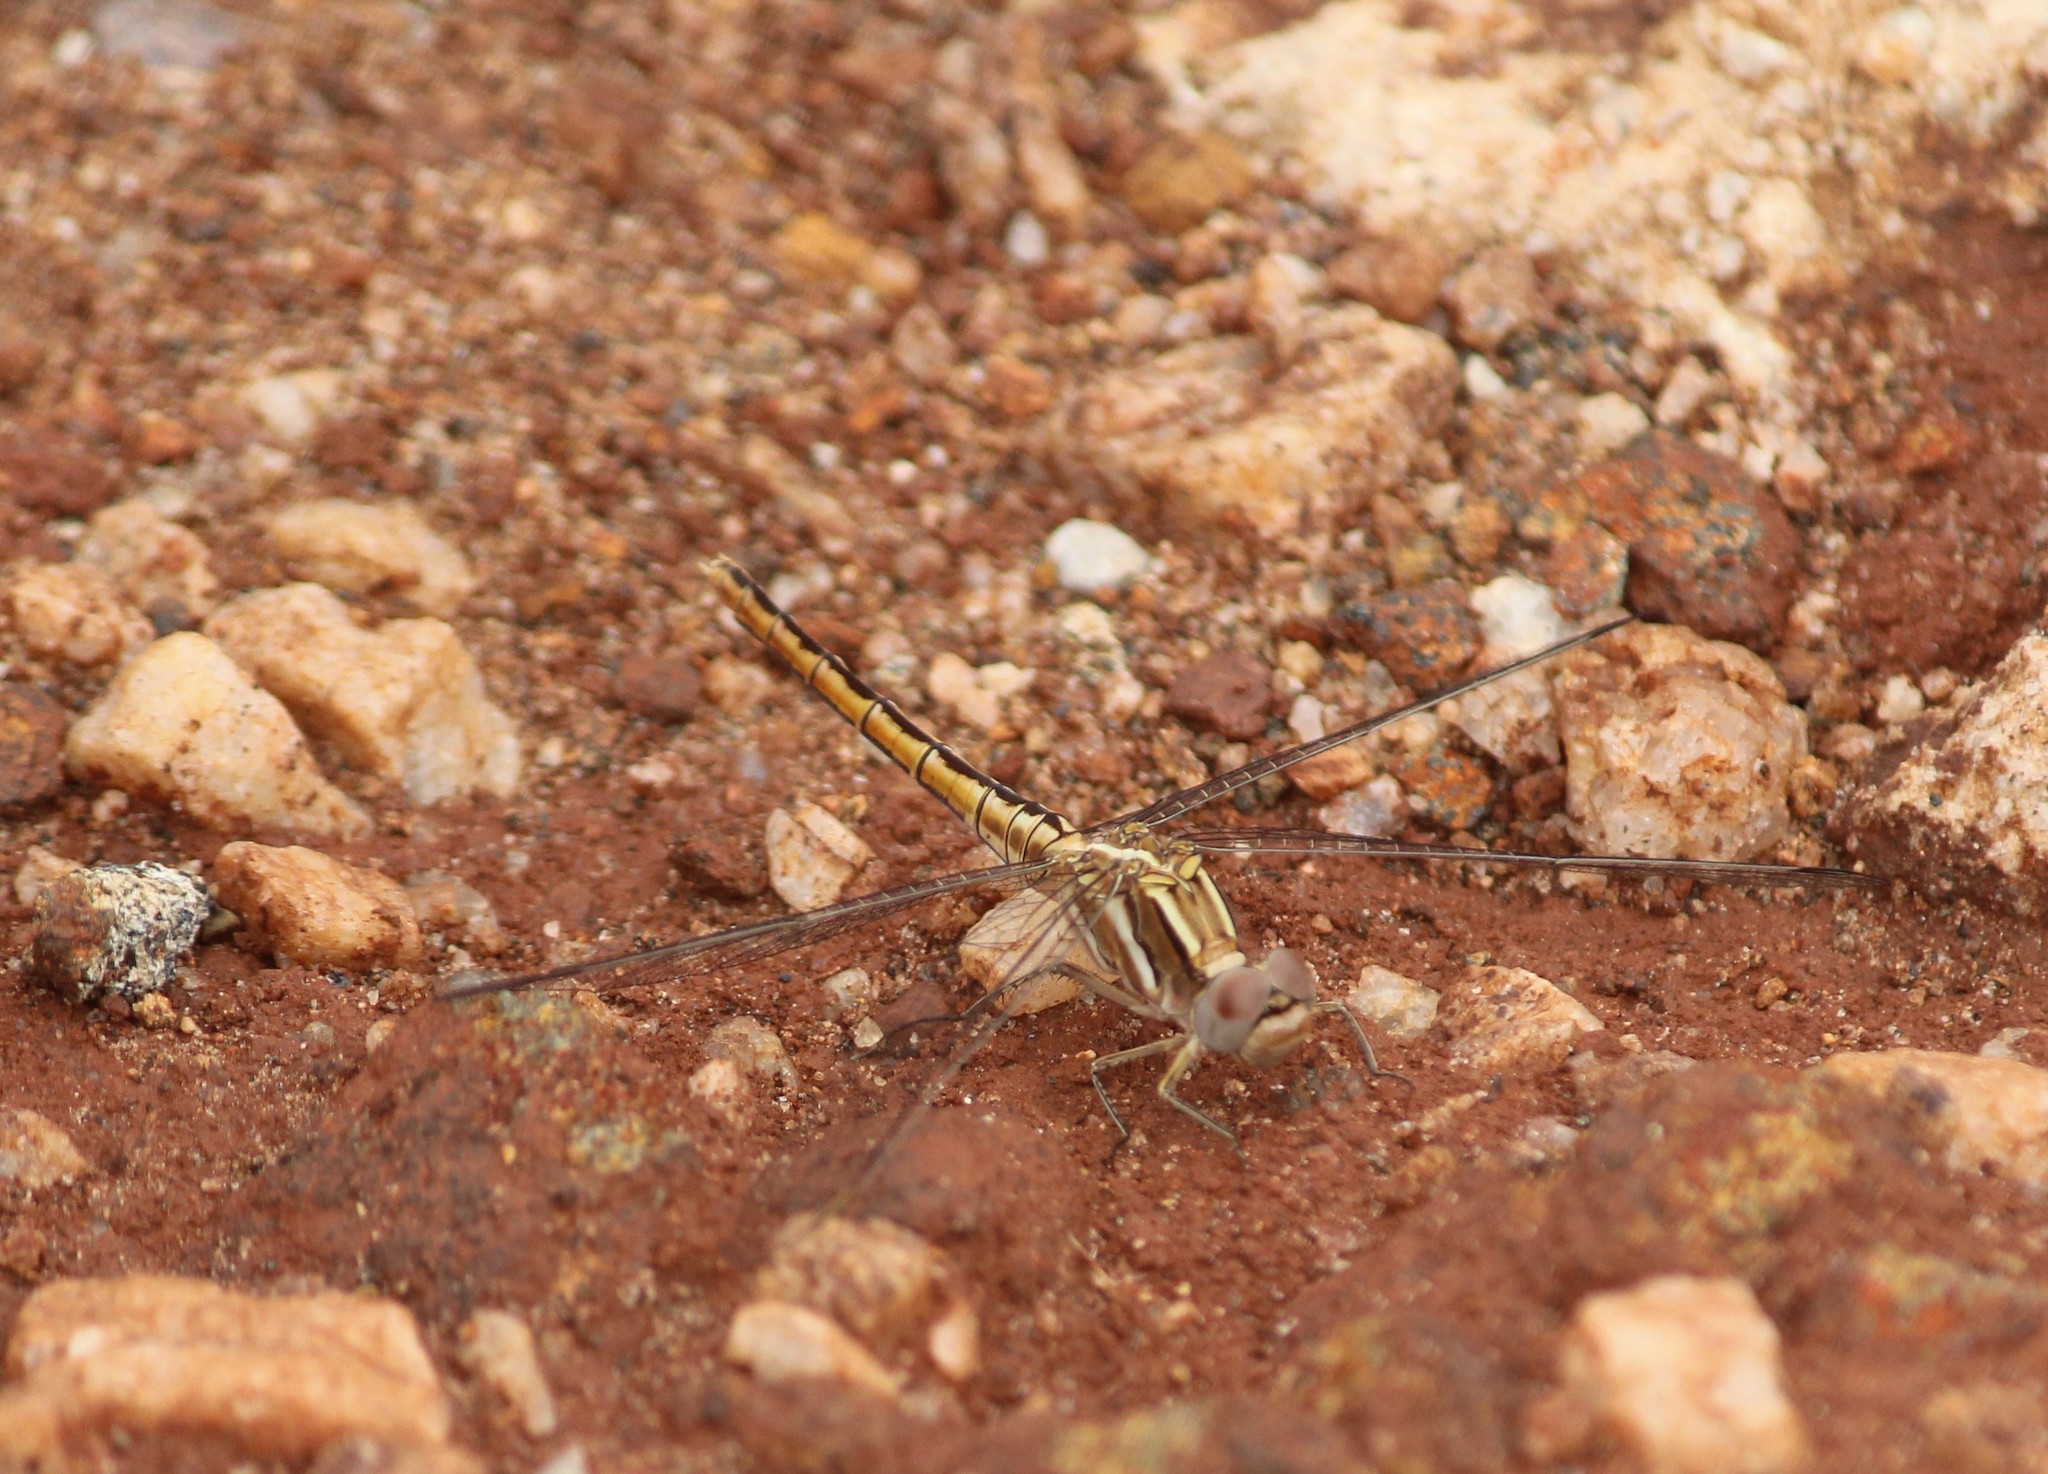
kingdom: Animalia
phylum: Arthropoda
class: Insecta
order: Odonata
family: Libellulidae
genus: Orthetrum
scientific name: Orthetrum taeniolatum
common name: Small skimmer
